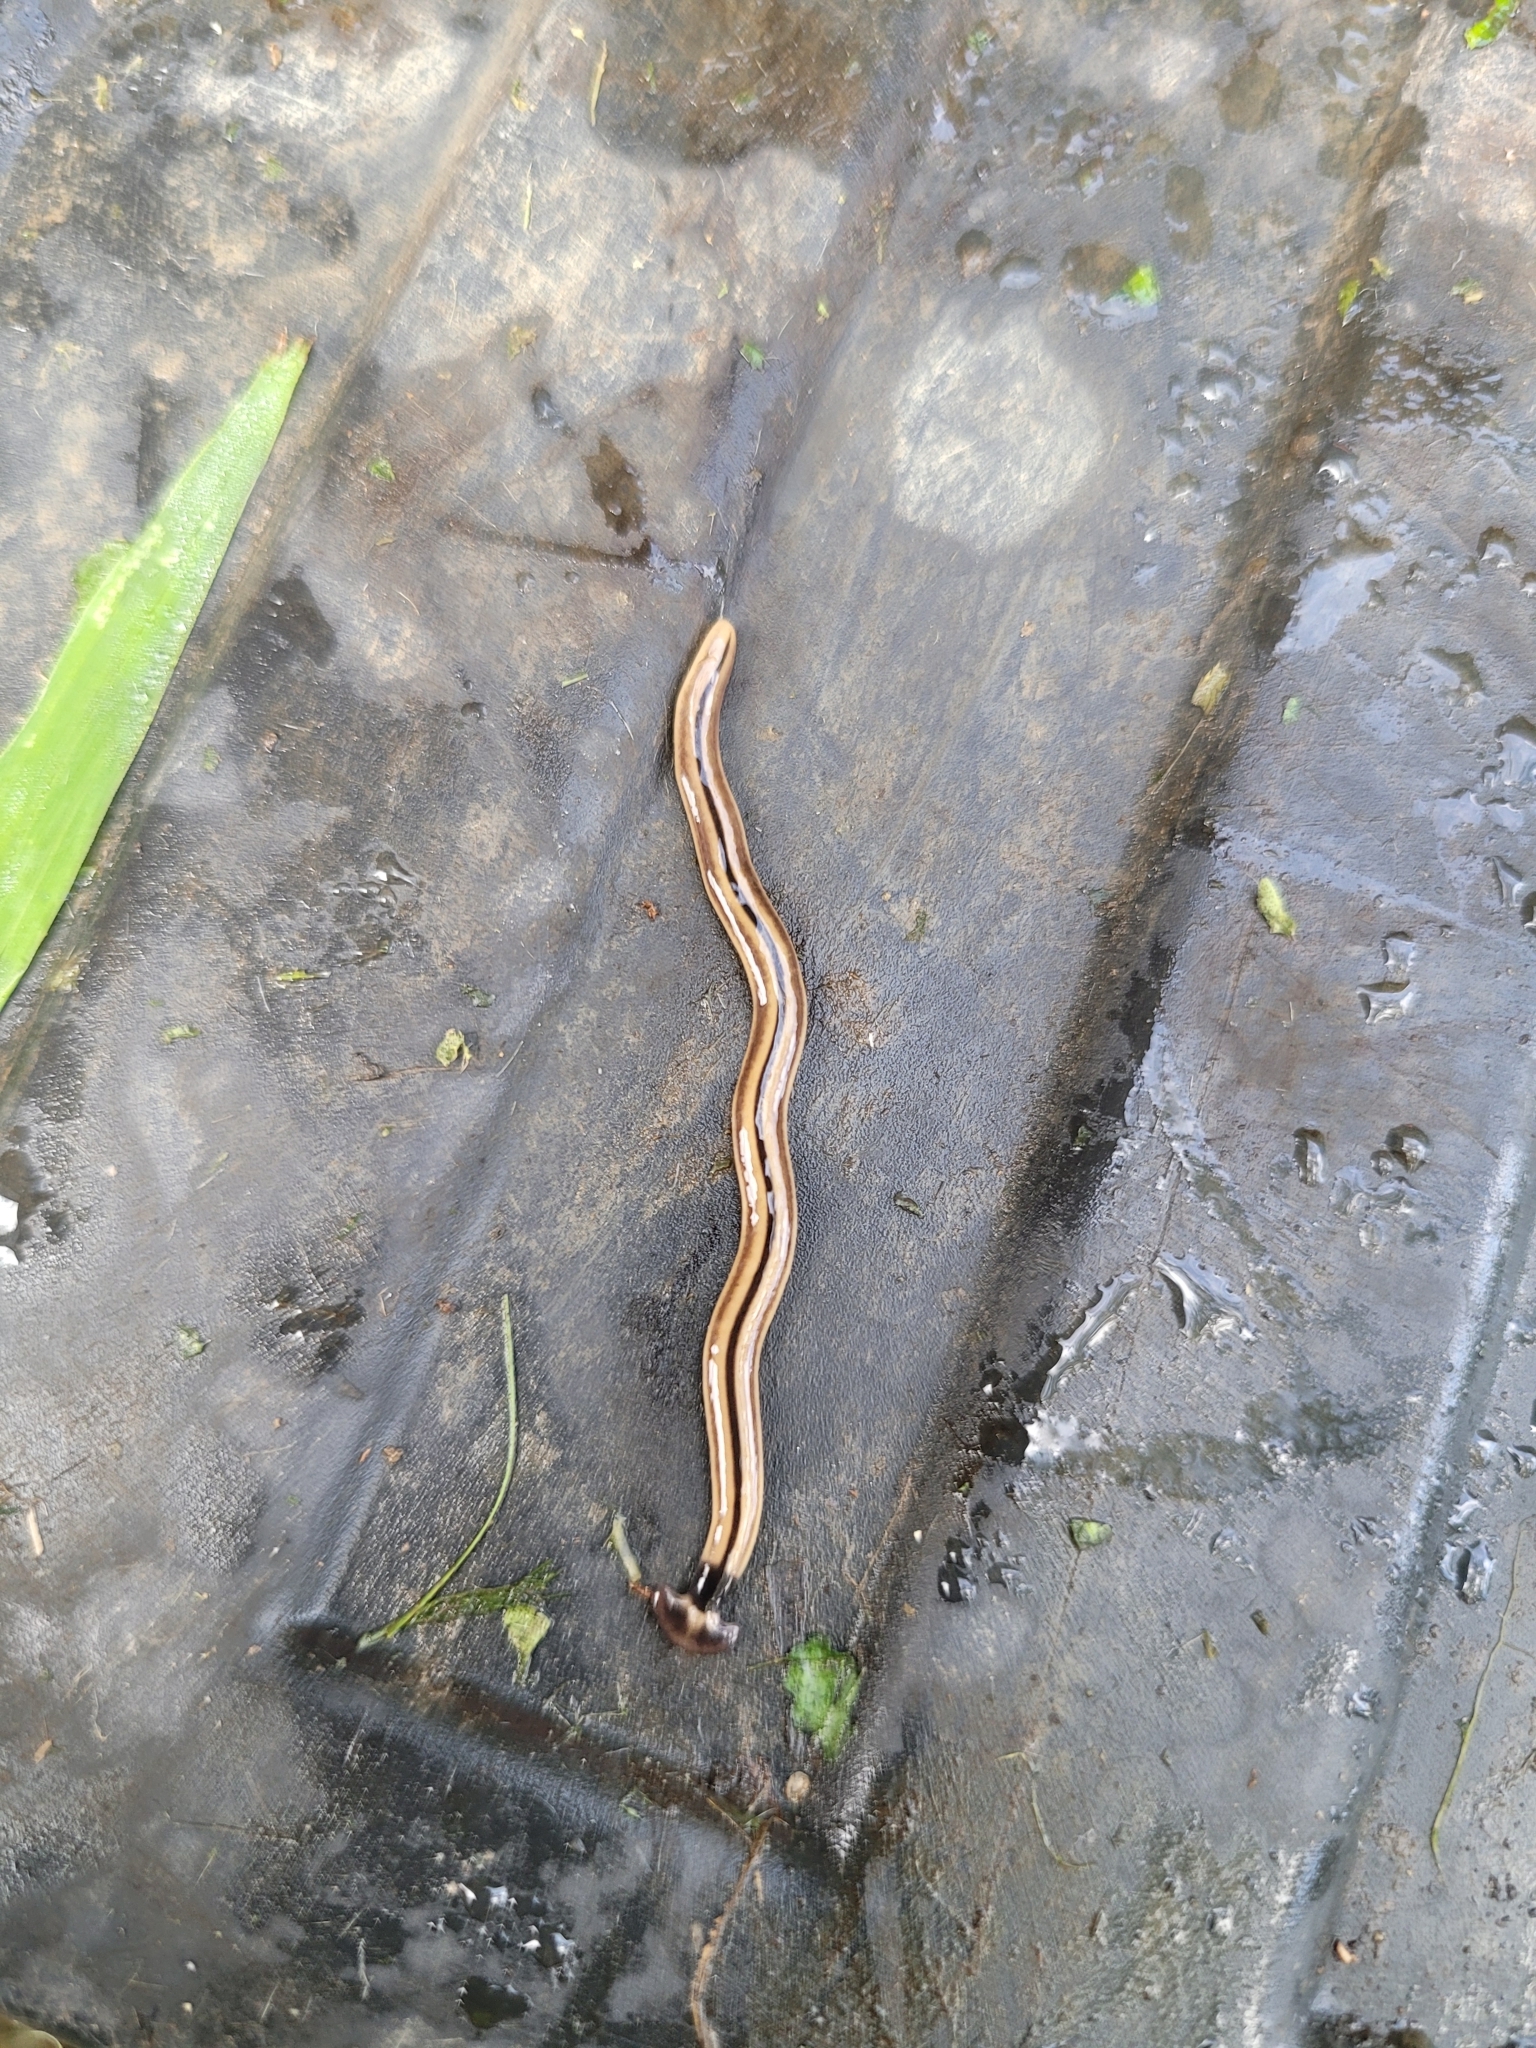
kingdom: Animalia
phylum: Platyhelminthes
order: Tricladida
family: Geoplanidae
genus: Bipalium
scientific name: Bipalium vagum
